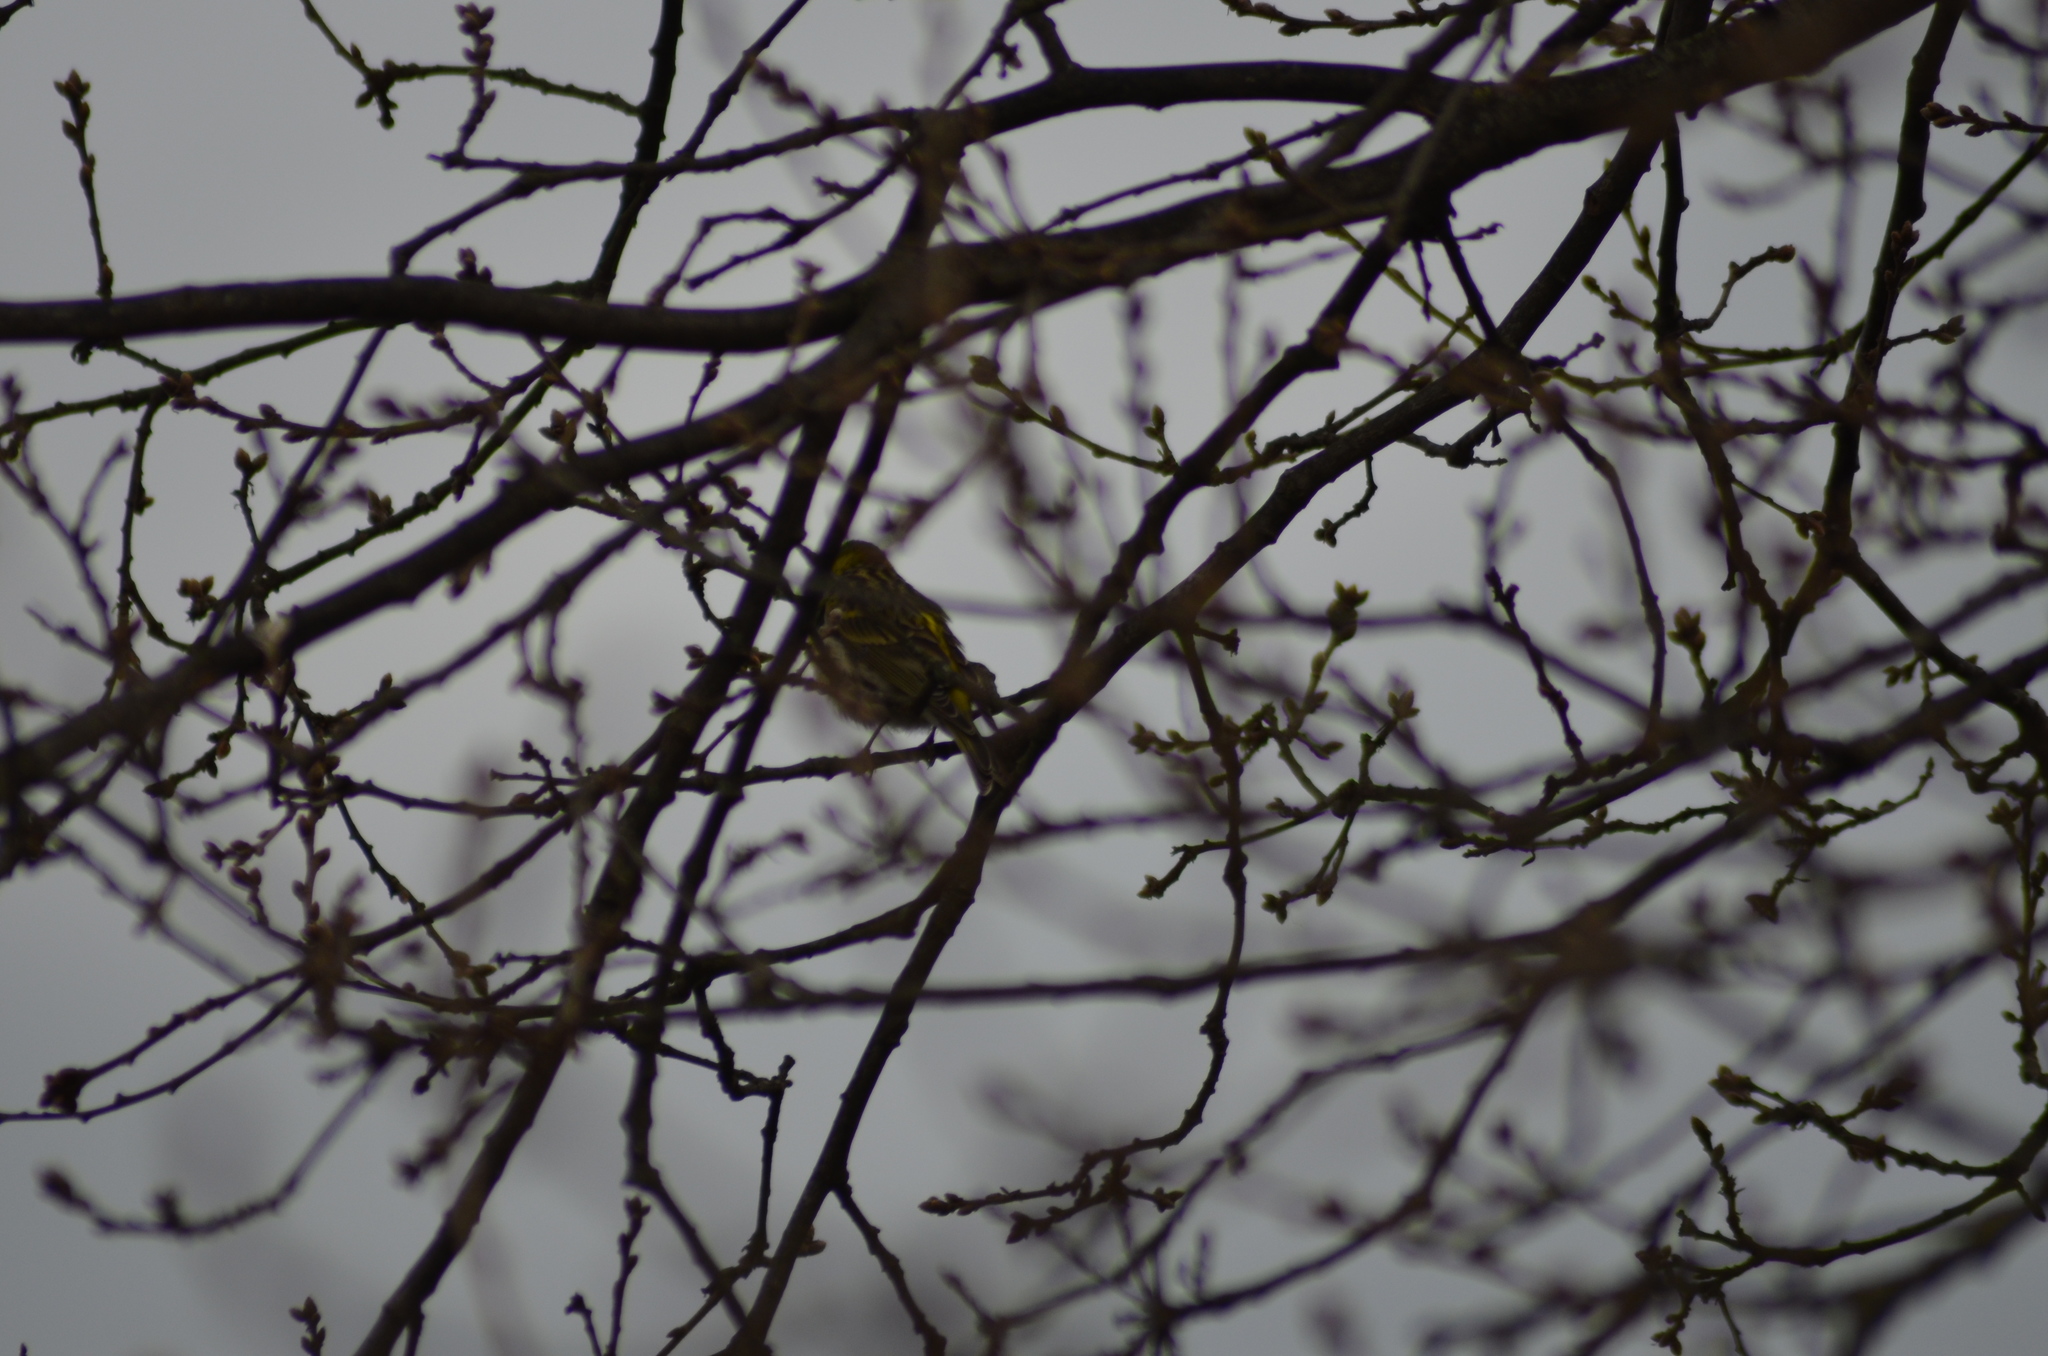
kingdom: Animalia
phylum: Chordata
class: Aves
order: Passeriformes
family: Fringillidae
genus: Serinus
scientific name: Serinus serinus
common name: European serin
